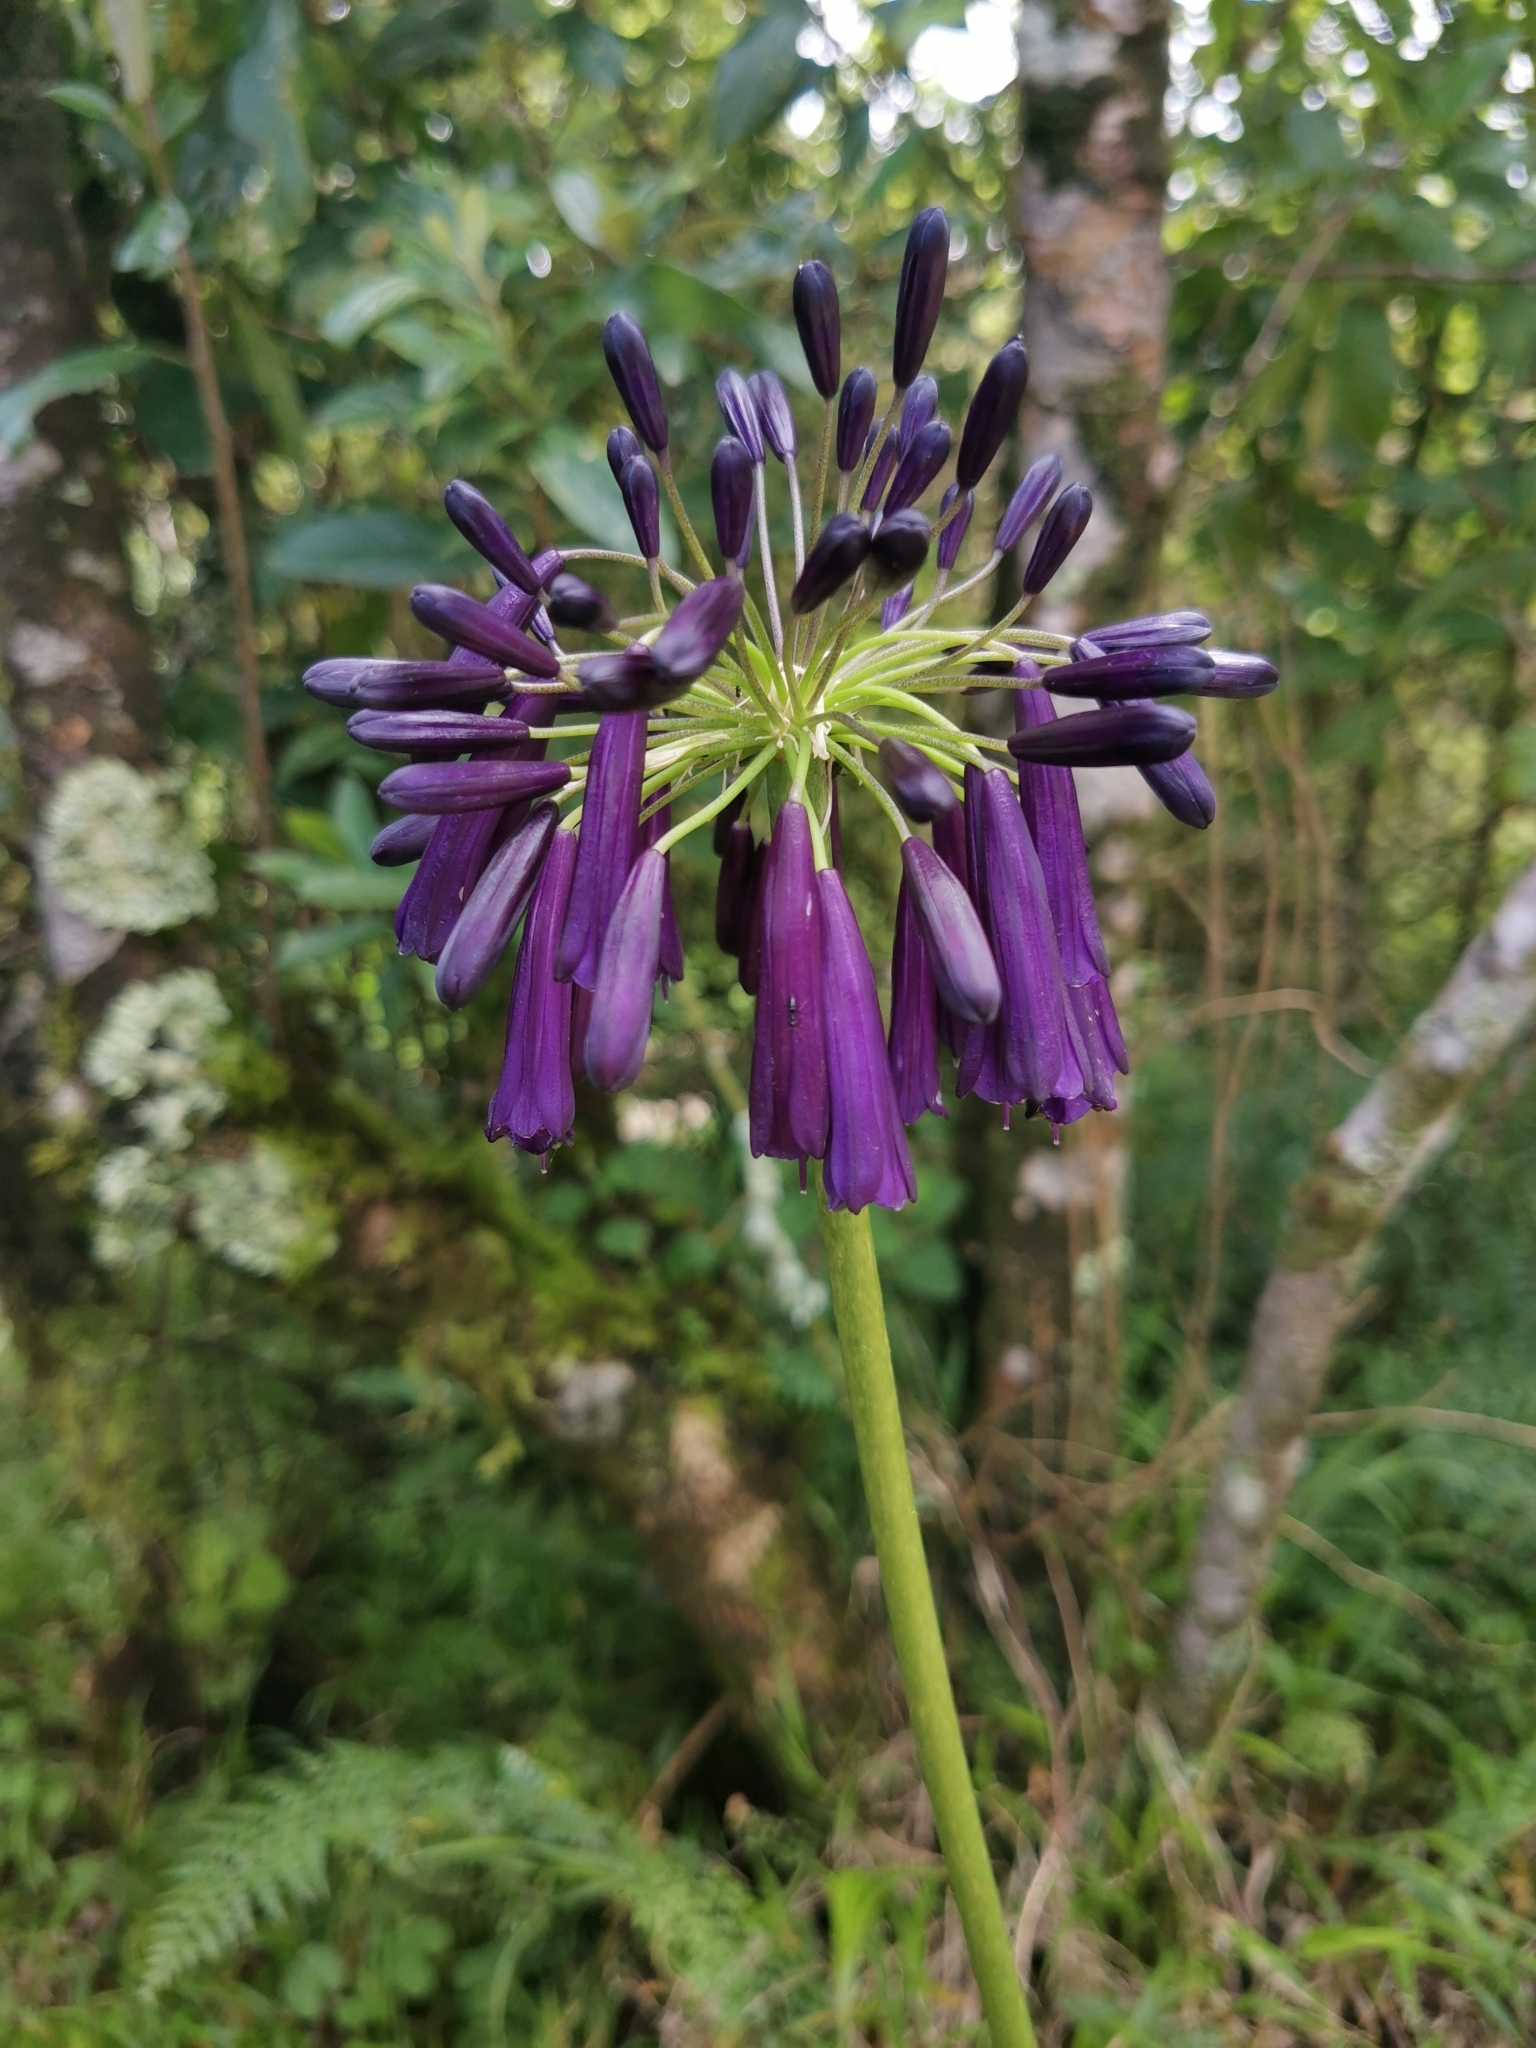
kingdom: Plantae
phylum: Tracheophyta
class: Liliopsida
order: Asparagales
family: Amaryllidaceae
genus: Agapanthus
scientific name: Agapanthus inapertus
